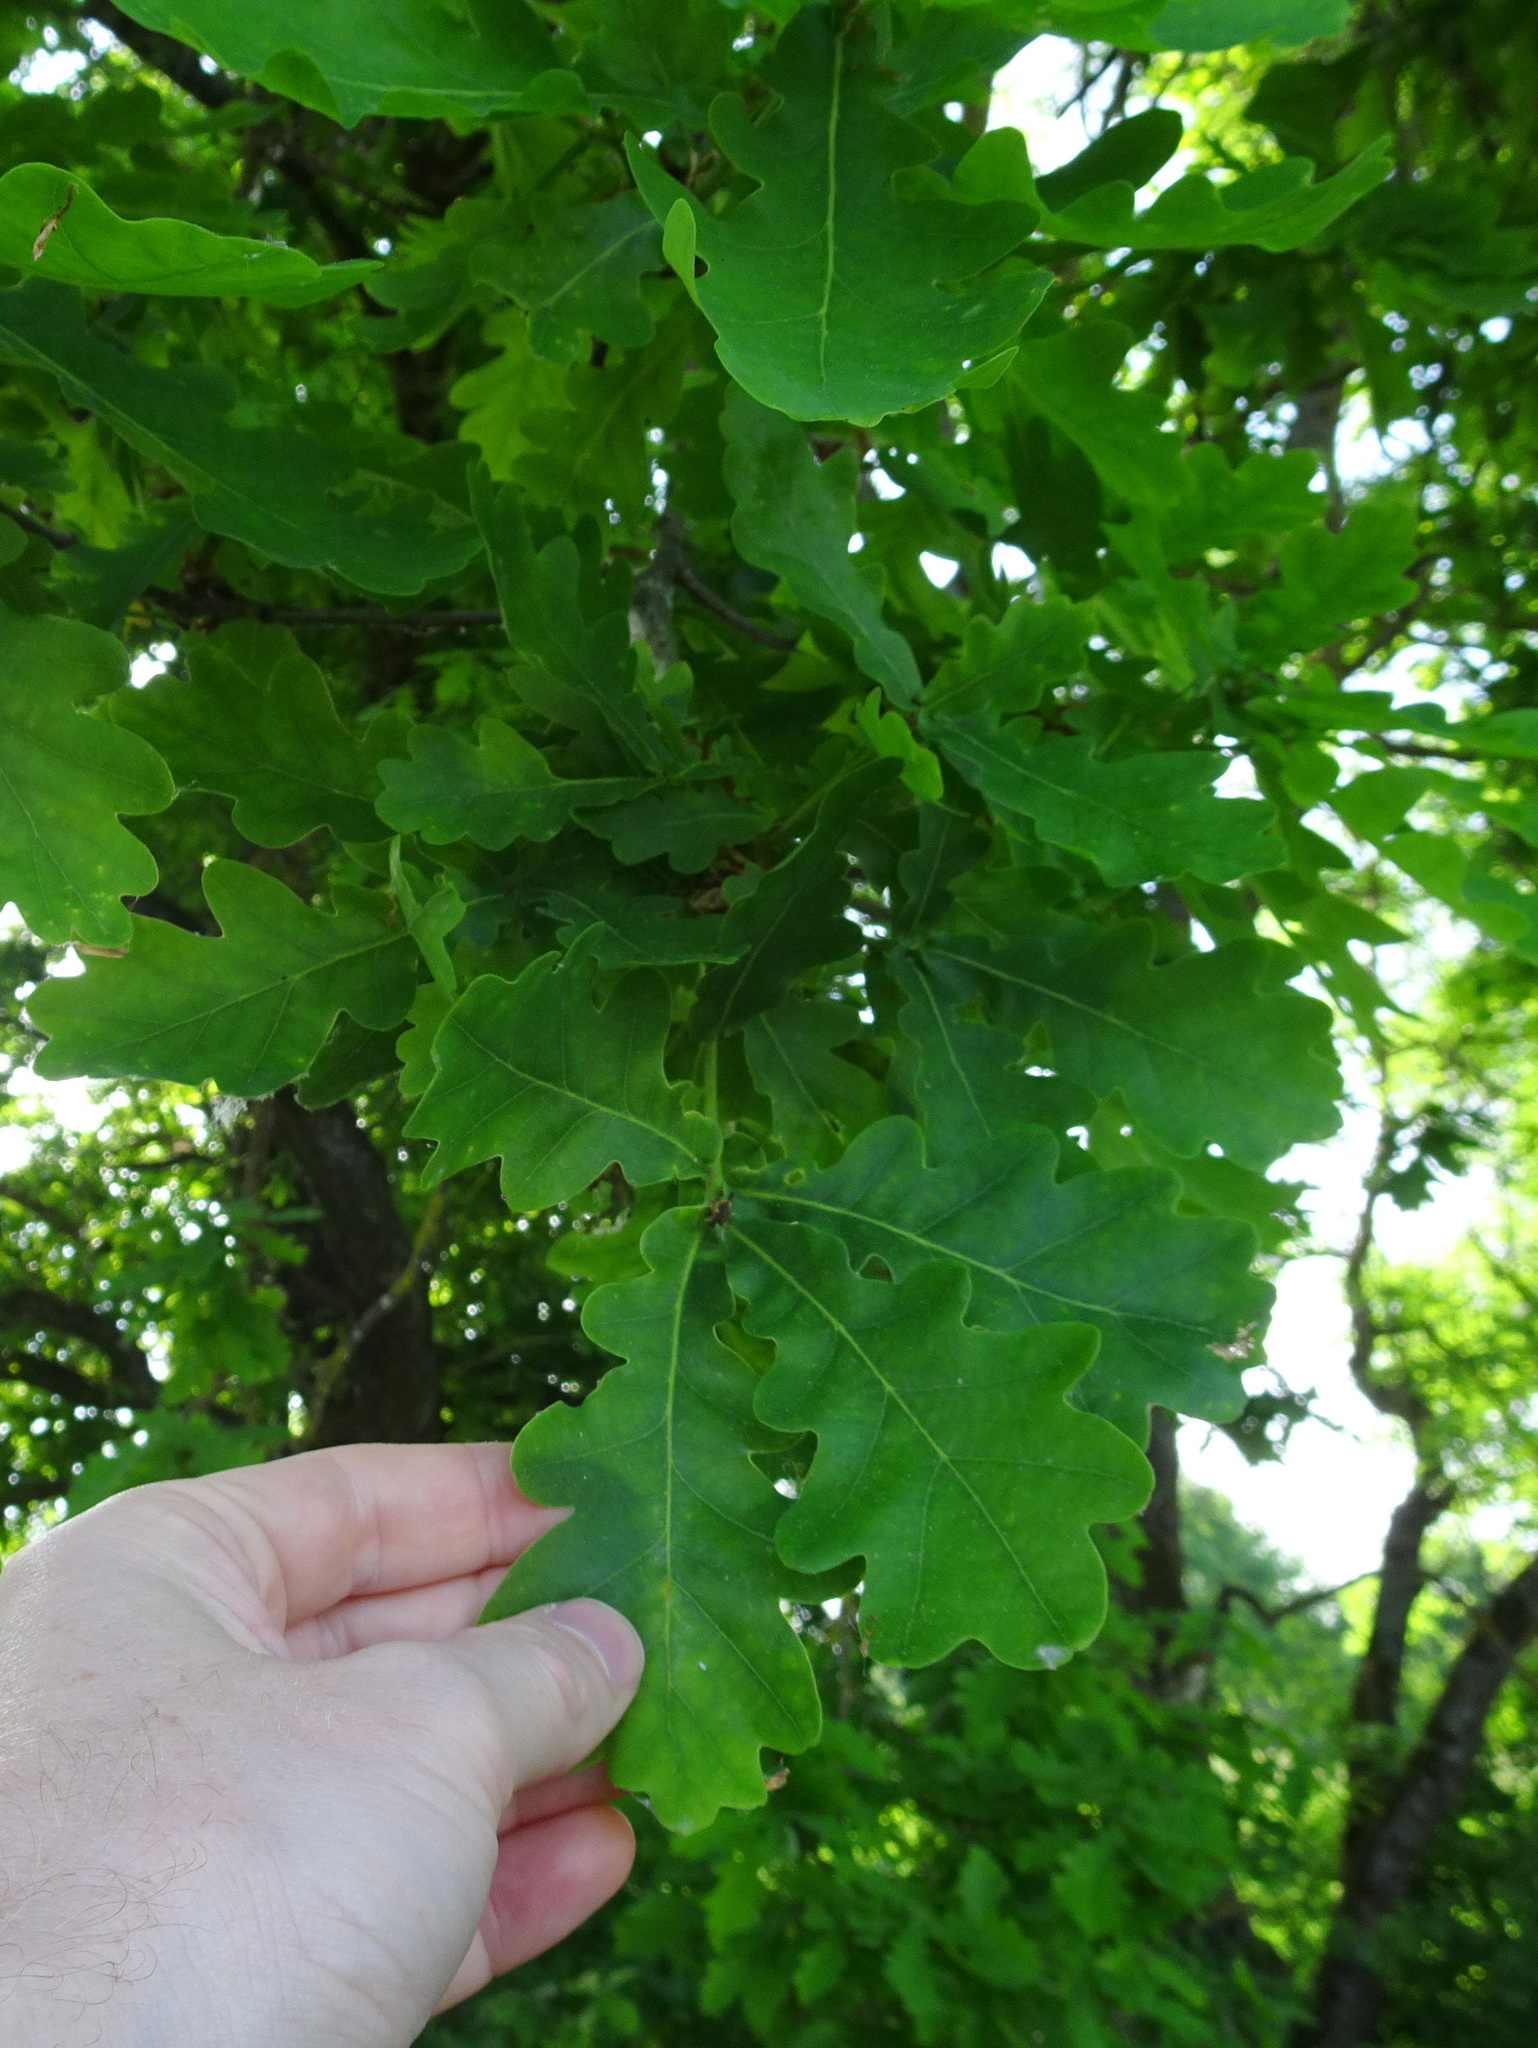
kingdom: Plantae
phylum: Tracheophyta
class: Magnoliopsida
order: Fagales
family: Fagaceae
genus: Quercus
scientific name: Quercus robur
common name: Pedunculate oak
